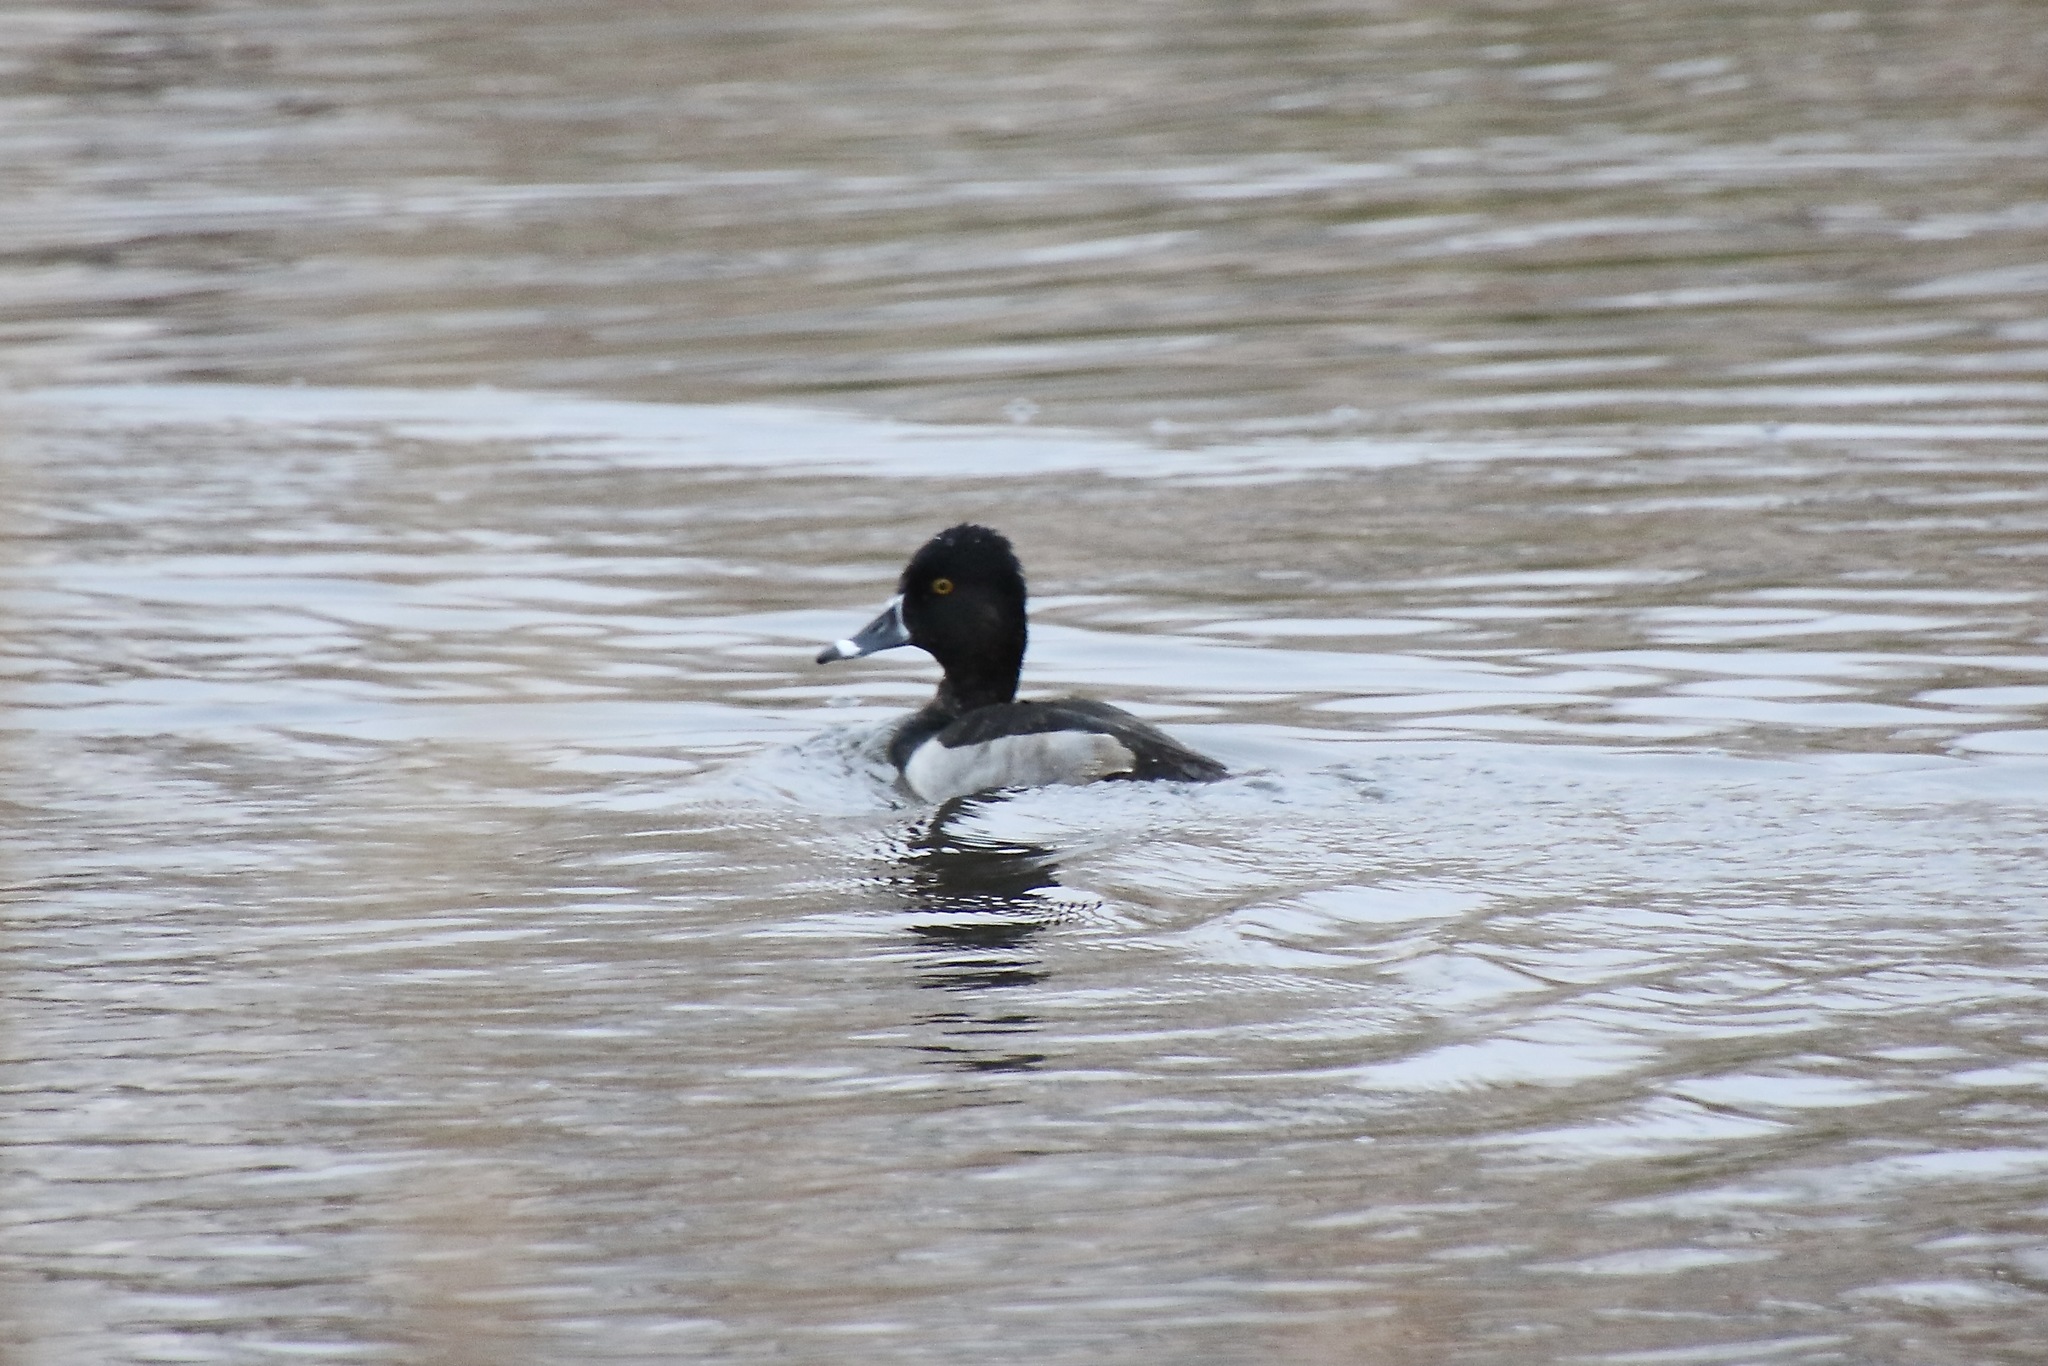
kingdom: Animalia
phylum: Chordata
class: Aves
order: Anseriformes
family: Anatidae
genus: Aythya
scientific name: Aythya collaris
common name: Ring-necked duck
